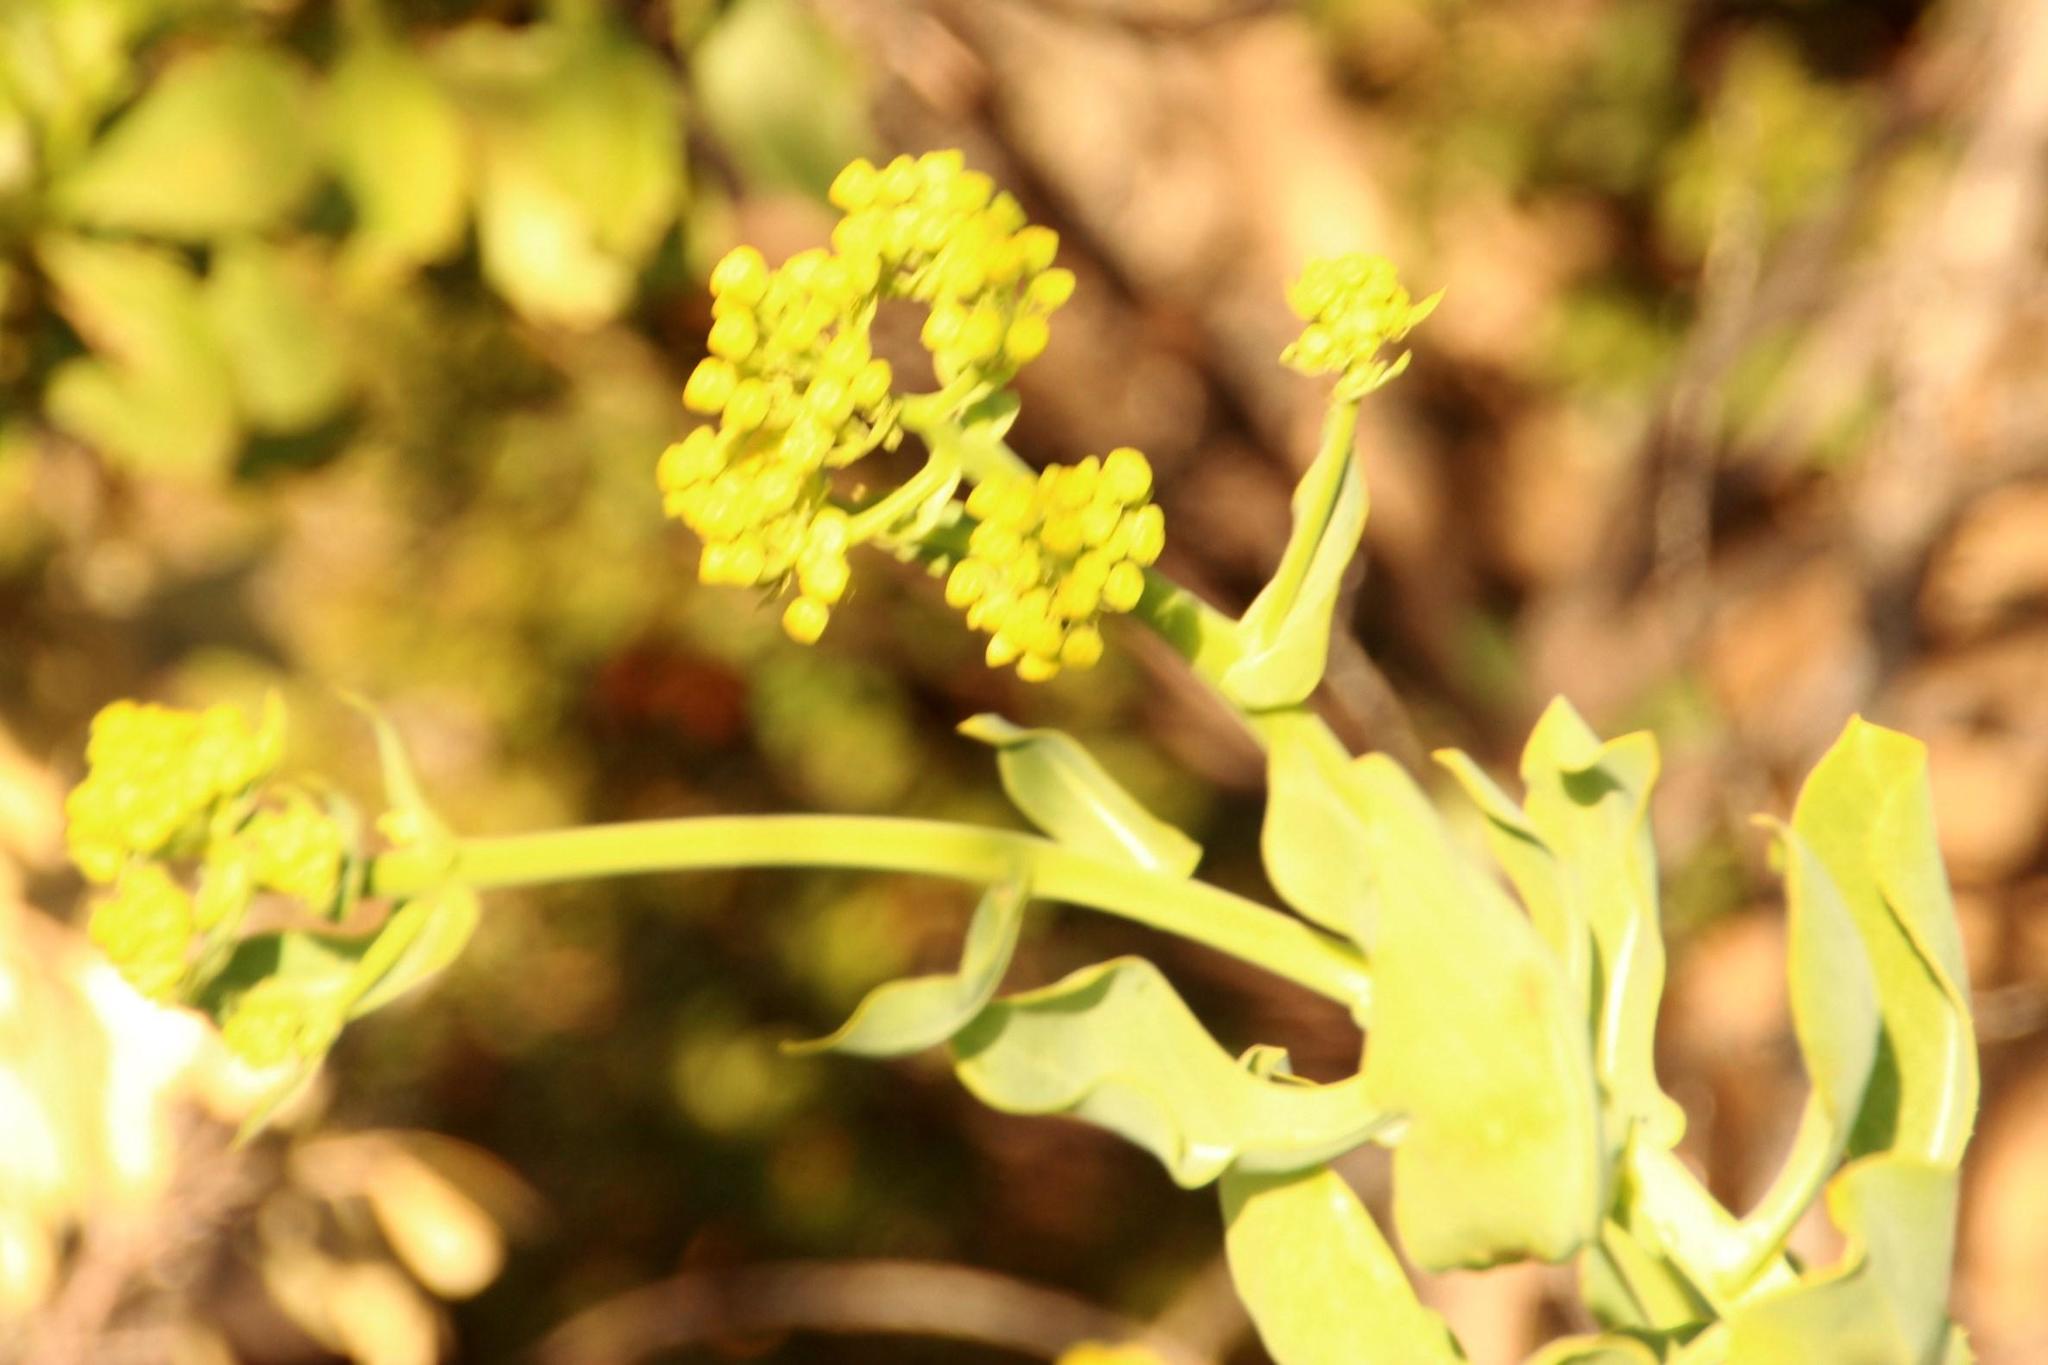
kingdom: Plantae
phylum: Tracheophyta
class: Magnoliopsida
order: Asterales
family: Asteraceae
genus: Othonna
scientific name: Othonna parviflora
